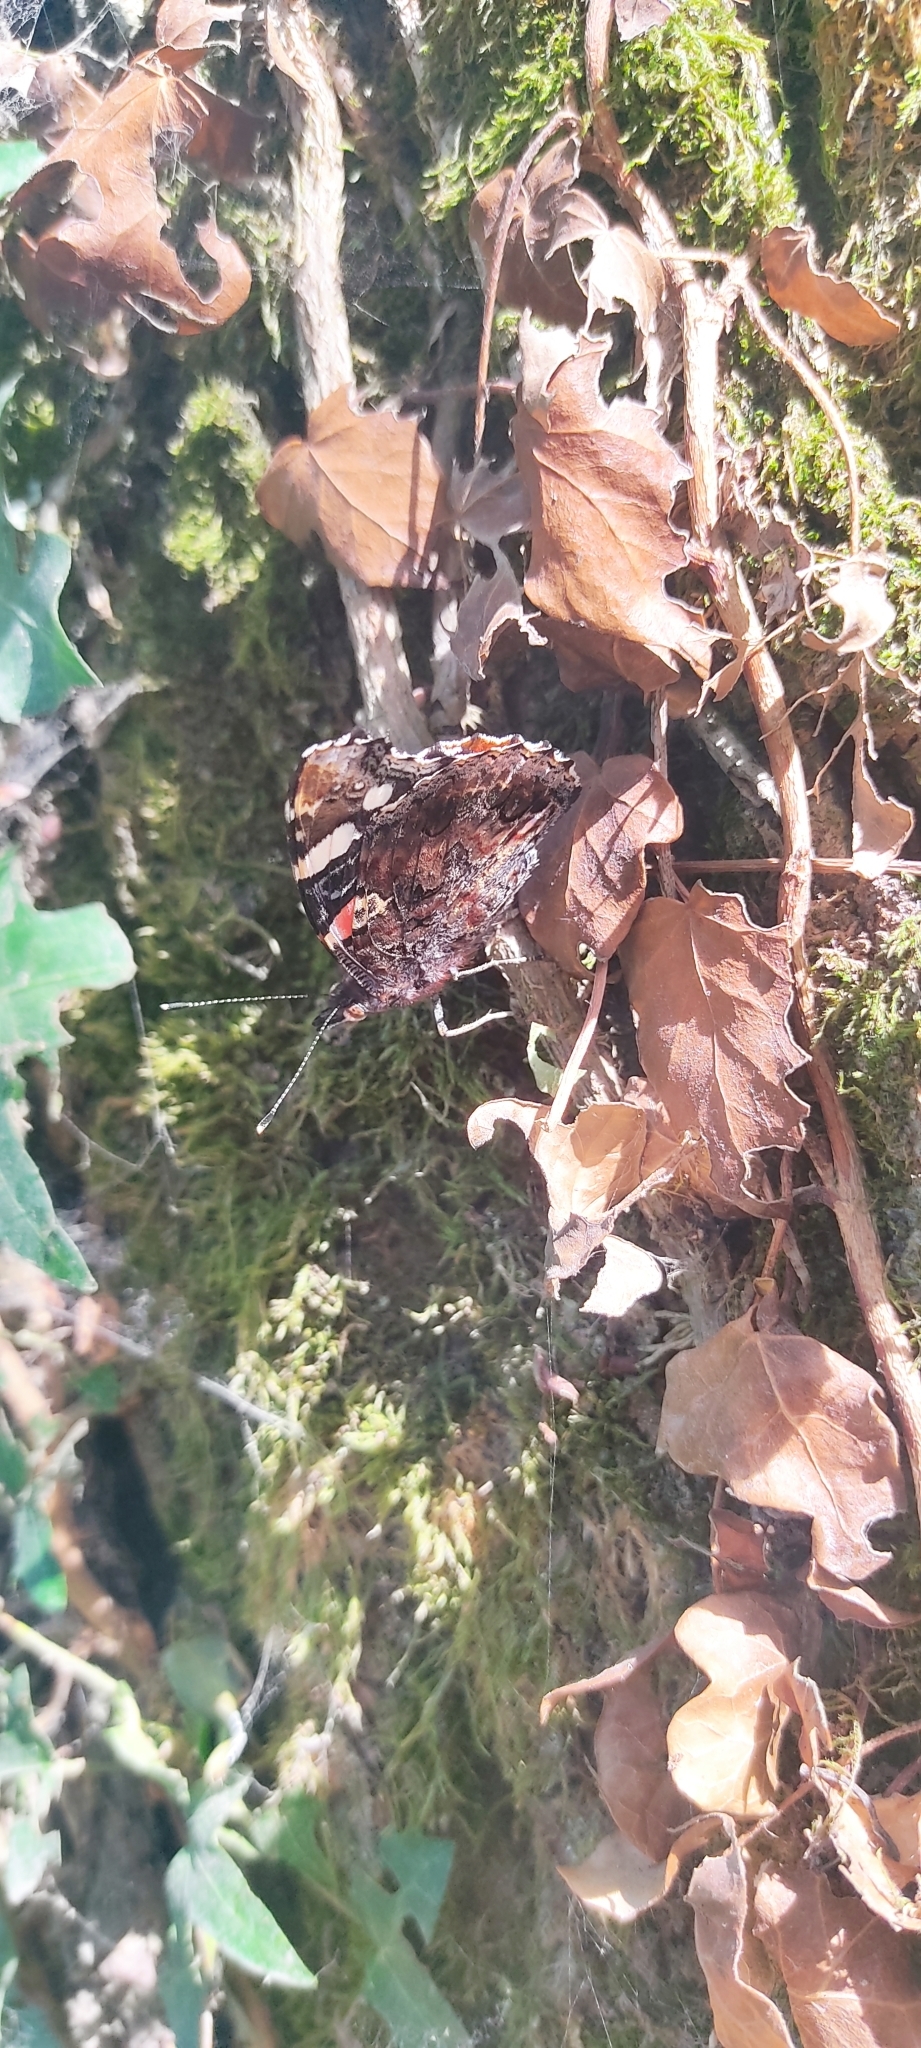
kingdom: Animalia
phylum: Arthropoda
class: Insecta
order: Lepidoptera
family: Nymphalidae
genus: Vanessa
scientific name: Vanessa atalanta
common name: Red admiral
